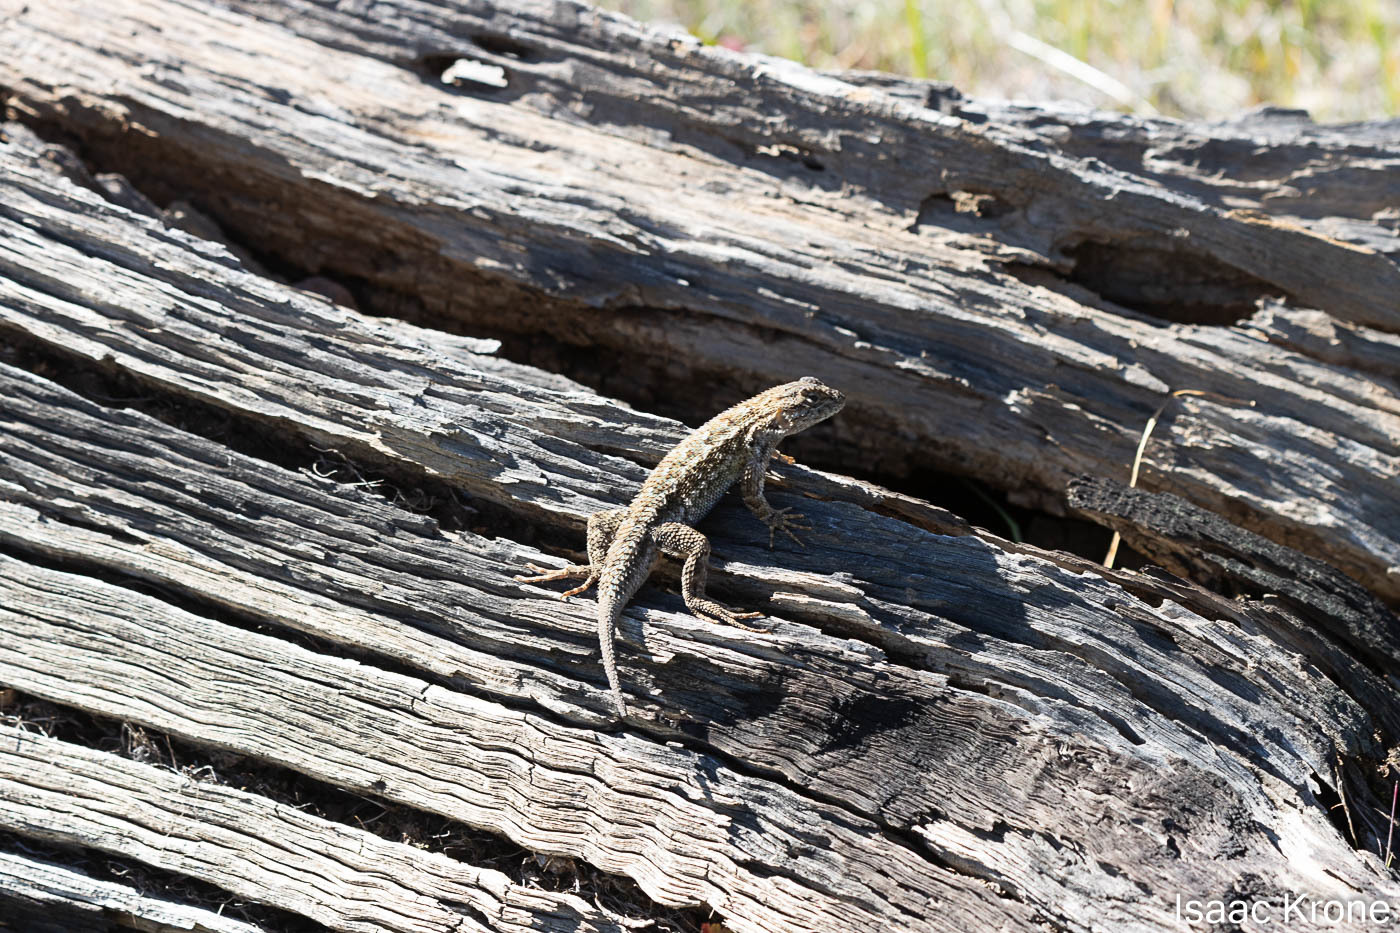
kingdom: Animalia
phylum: Chordata
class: Squamata
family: Phrynosomatidae
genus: Sceloporus
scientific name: Sceloporus occidentalis
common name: Western fence lizard
